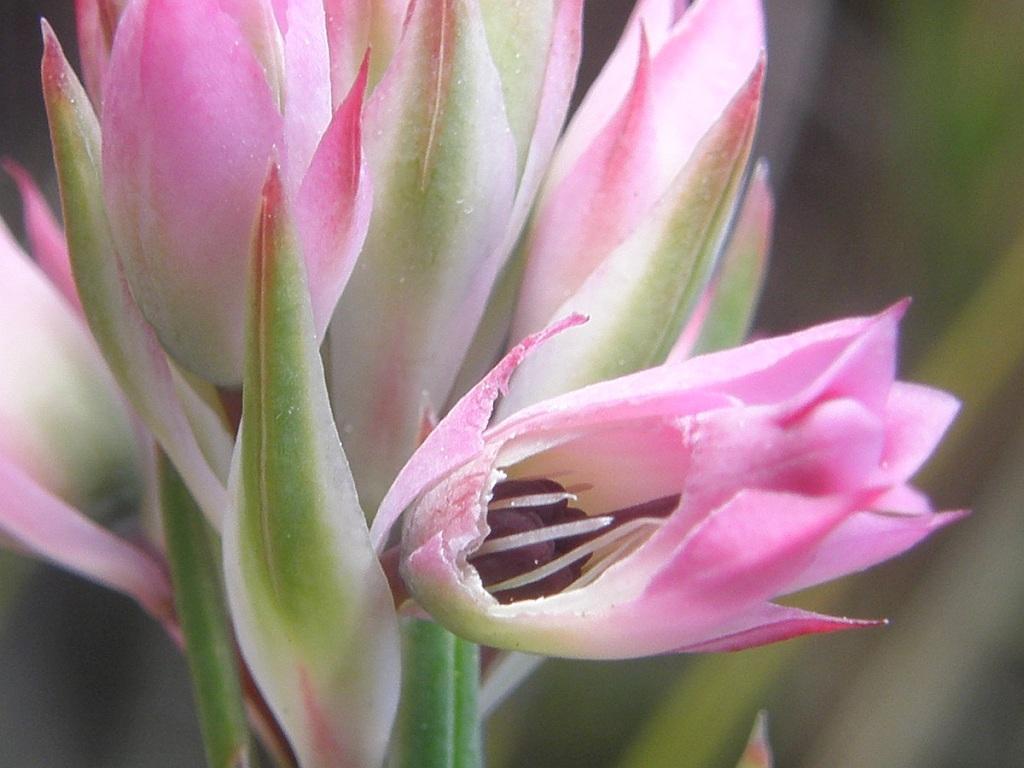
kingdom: Plantae
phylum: Tracheophyta
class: Magnoliopsida
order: Ericales
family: Ericaceae
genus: Erica
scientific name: Erica taxifolia
